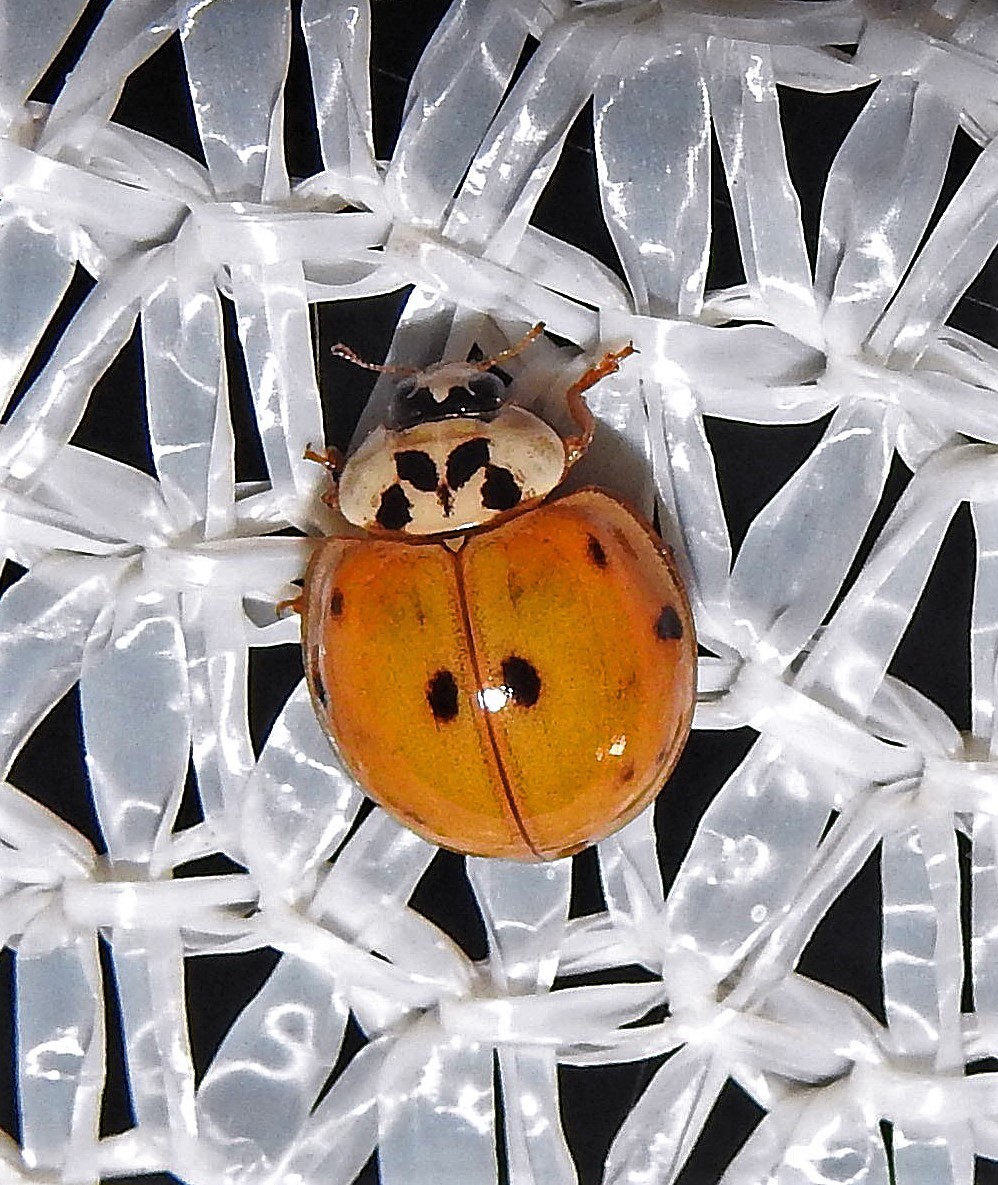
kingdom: Animalia
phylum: Arthropoda
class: Insecta
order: Coleoptera
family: Coccinellidae
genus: Harmonia
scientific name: Harmonia axyridis
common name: Harlequin ladybird
